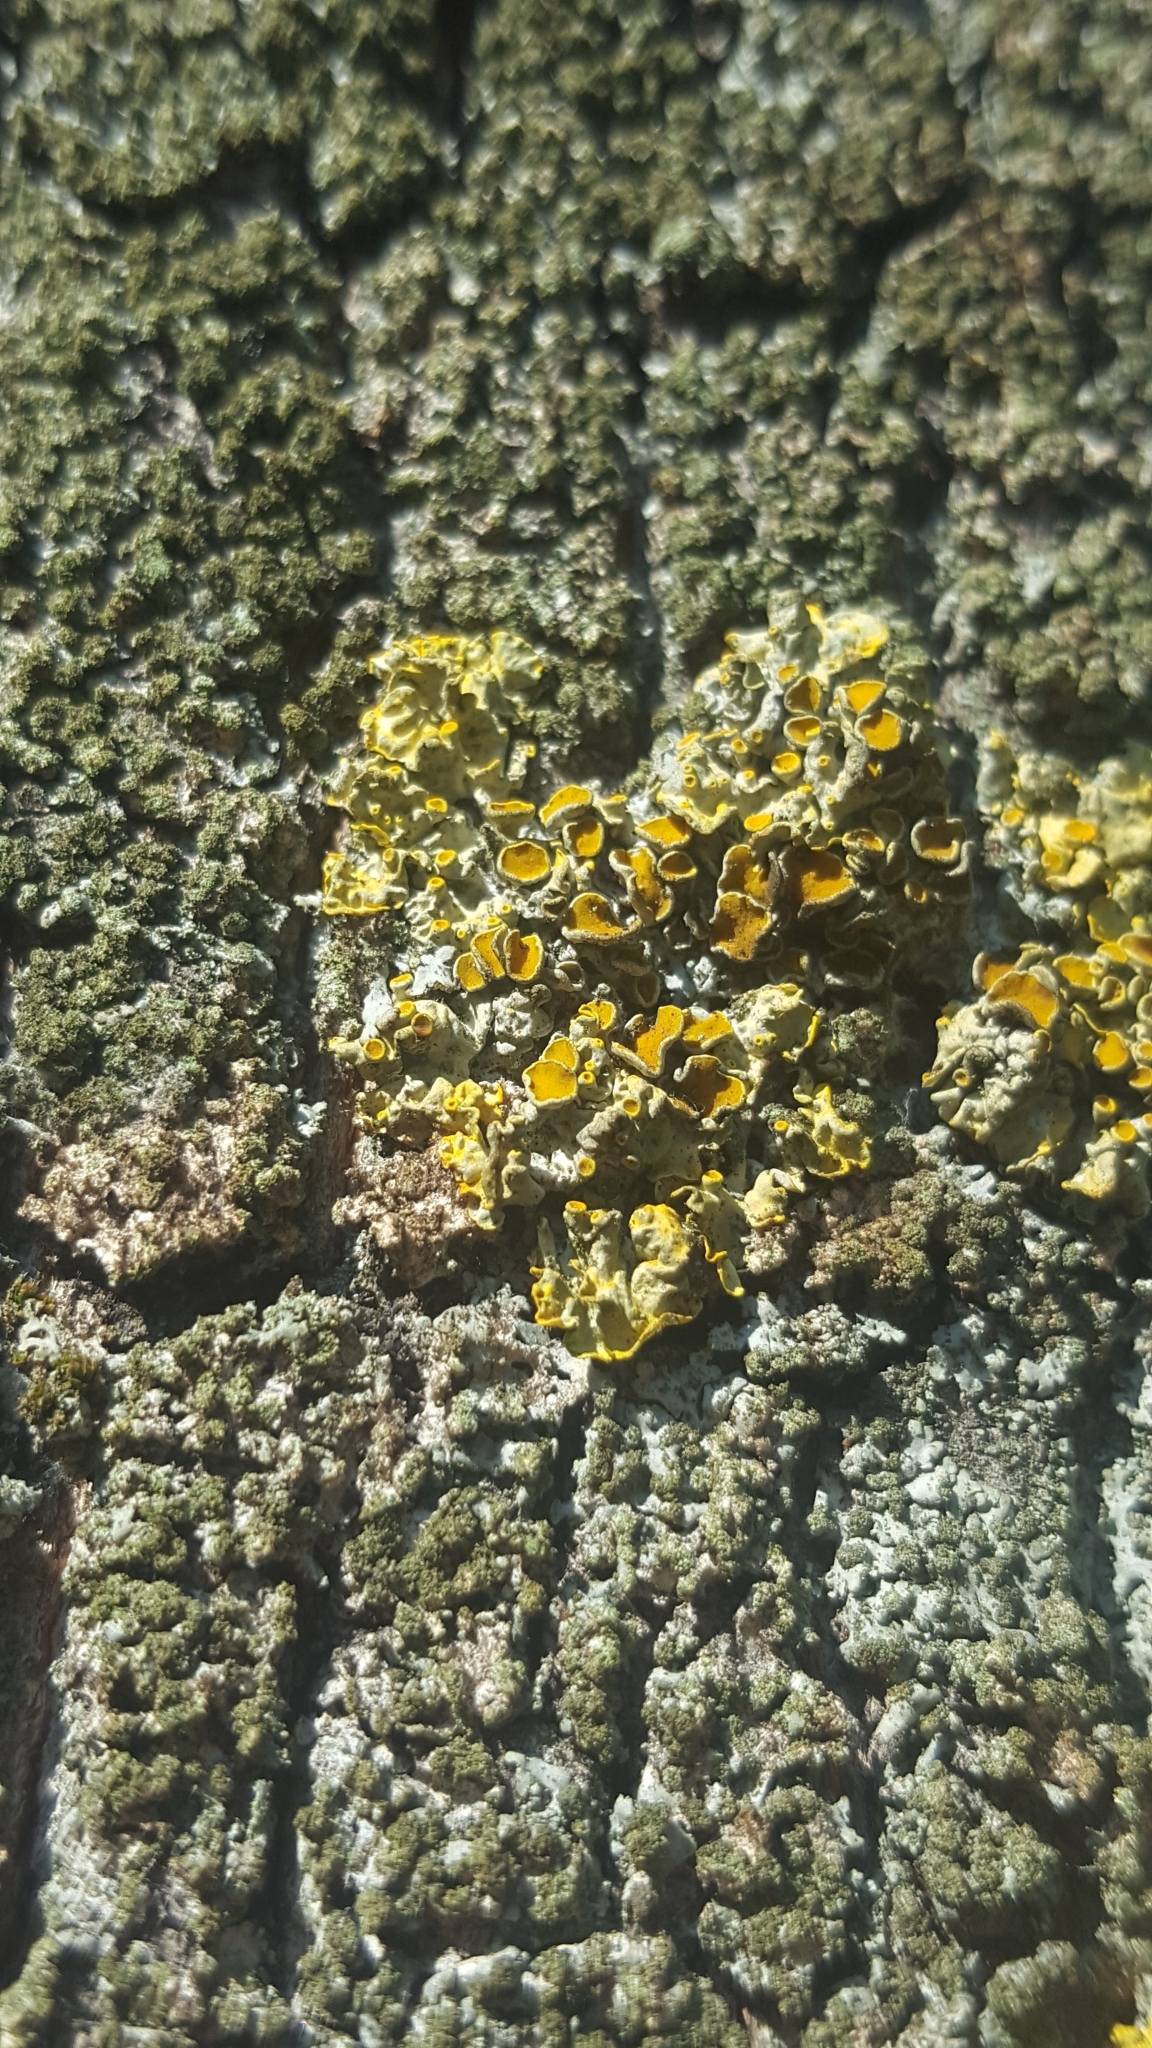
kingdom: Fungi
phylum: Ascomycota
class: Lecanoromycetes
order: Teloschistales
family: Teloschistaceae
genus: Xanthoria
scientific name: Xanthoria parietina
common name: Common orange lichen
